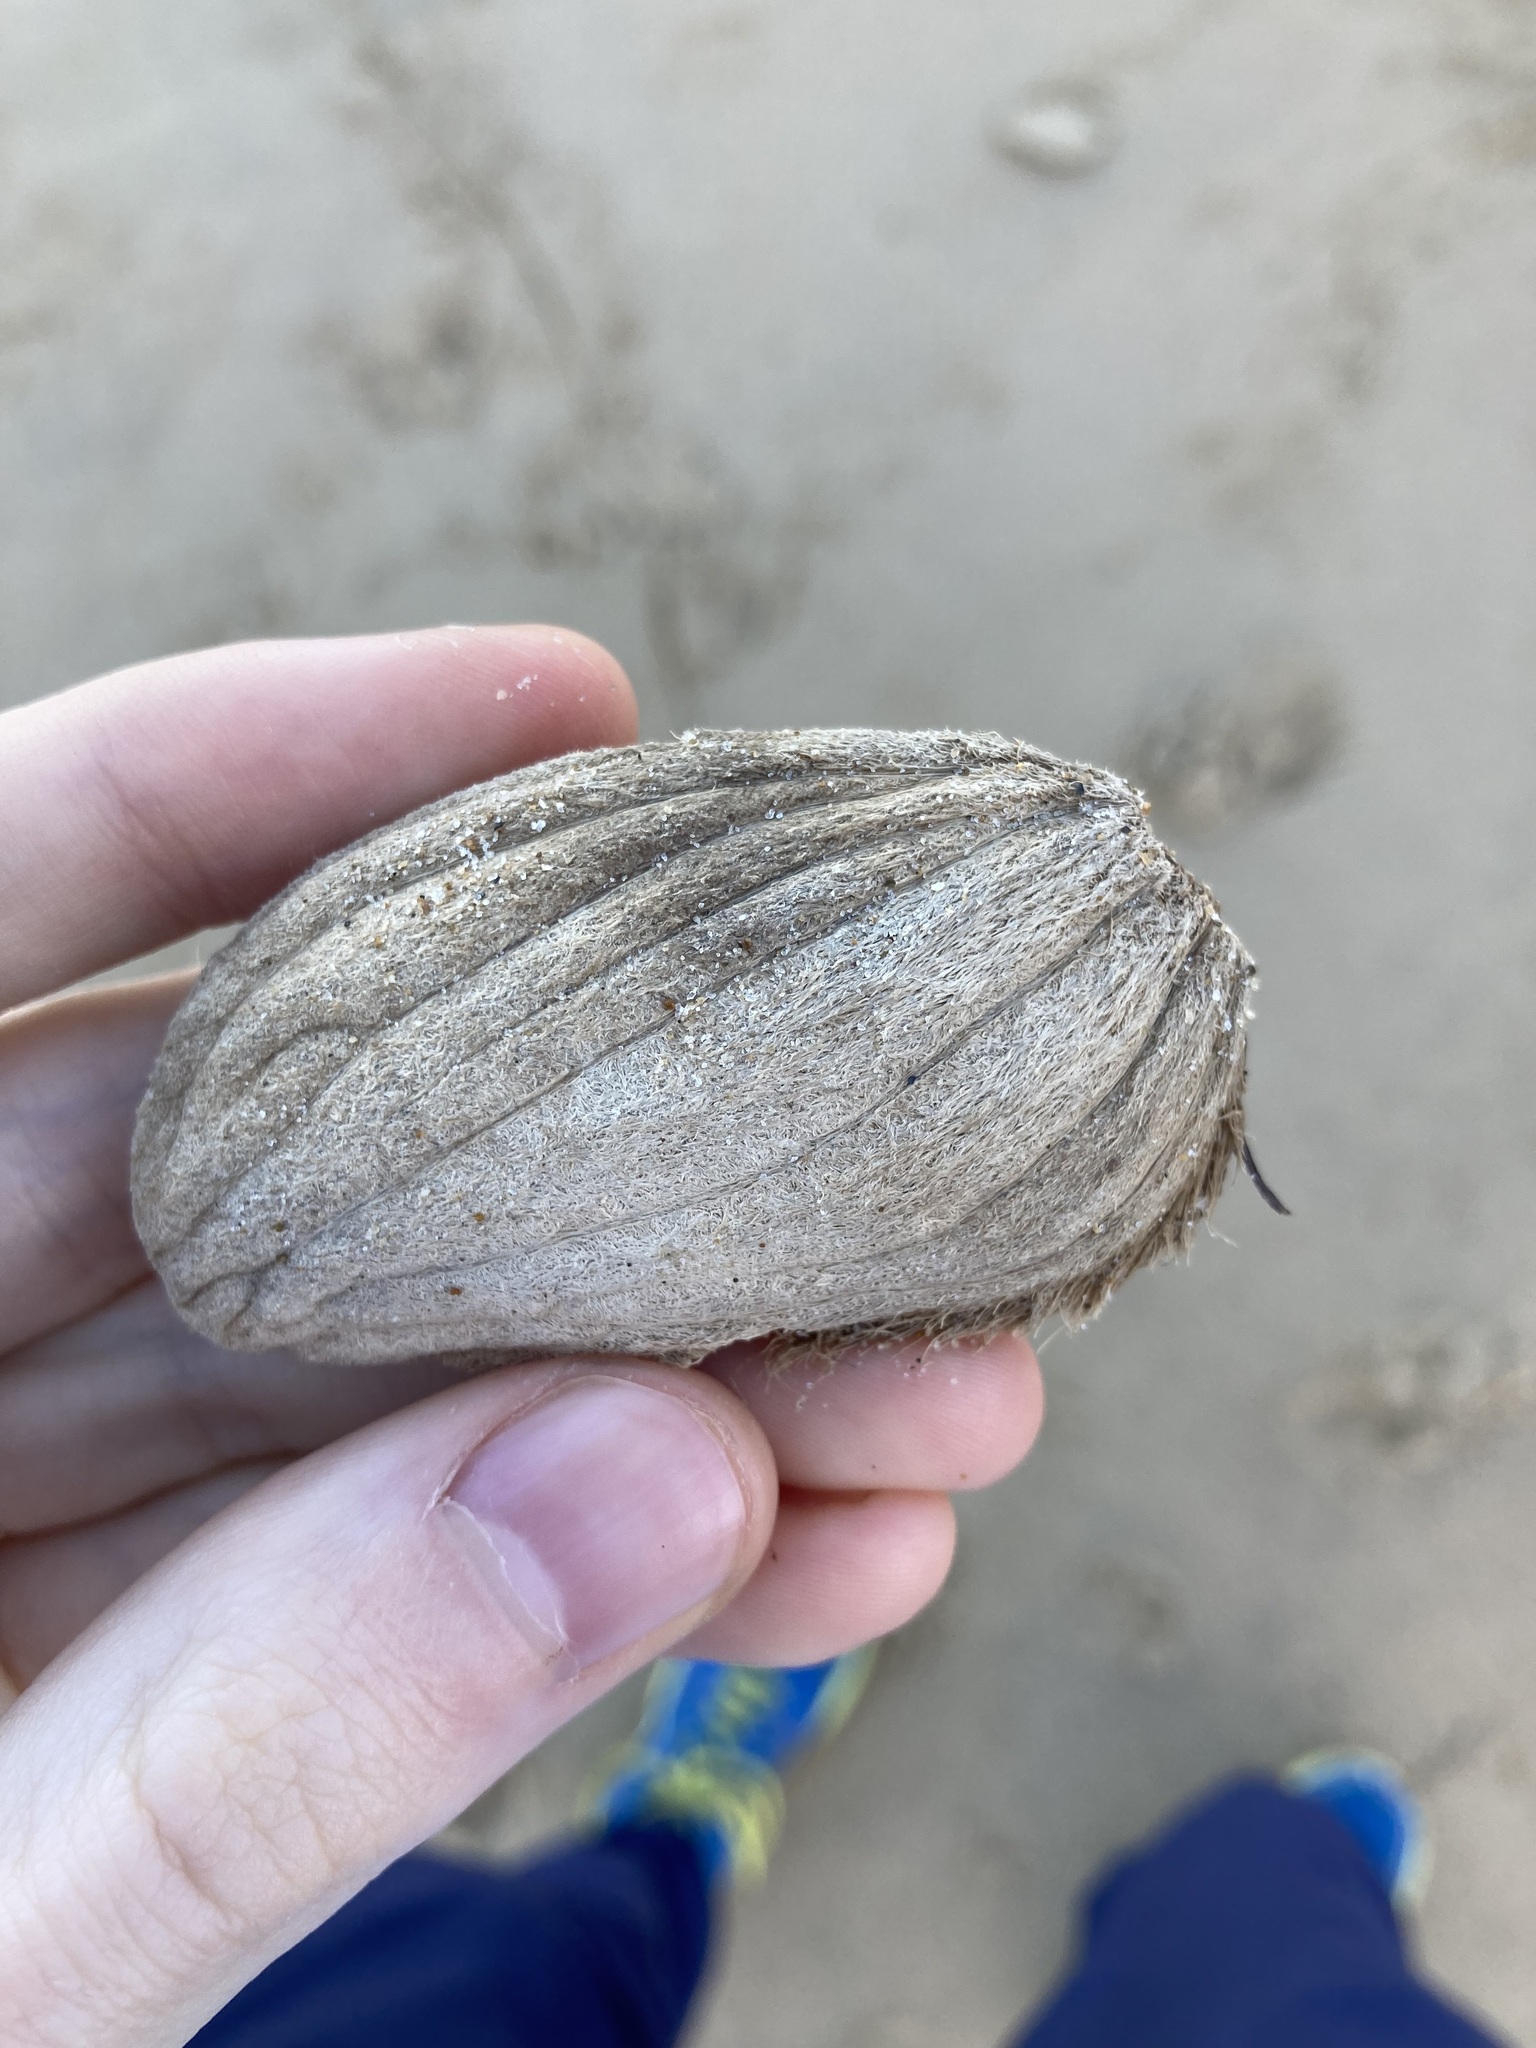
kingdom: Plantae
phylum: Tracheophyta
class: Magnoliopsida
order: Sapindales
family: Anacardiaceae
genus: Mangifera
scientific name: Mangifera indica
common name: Mango
